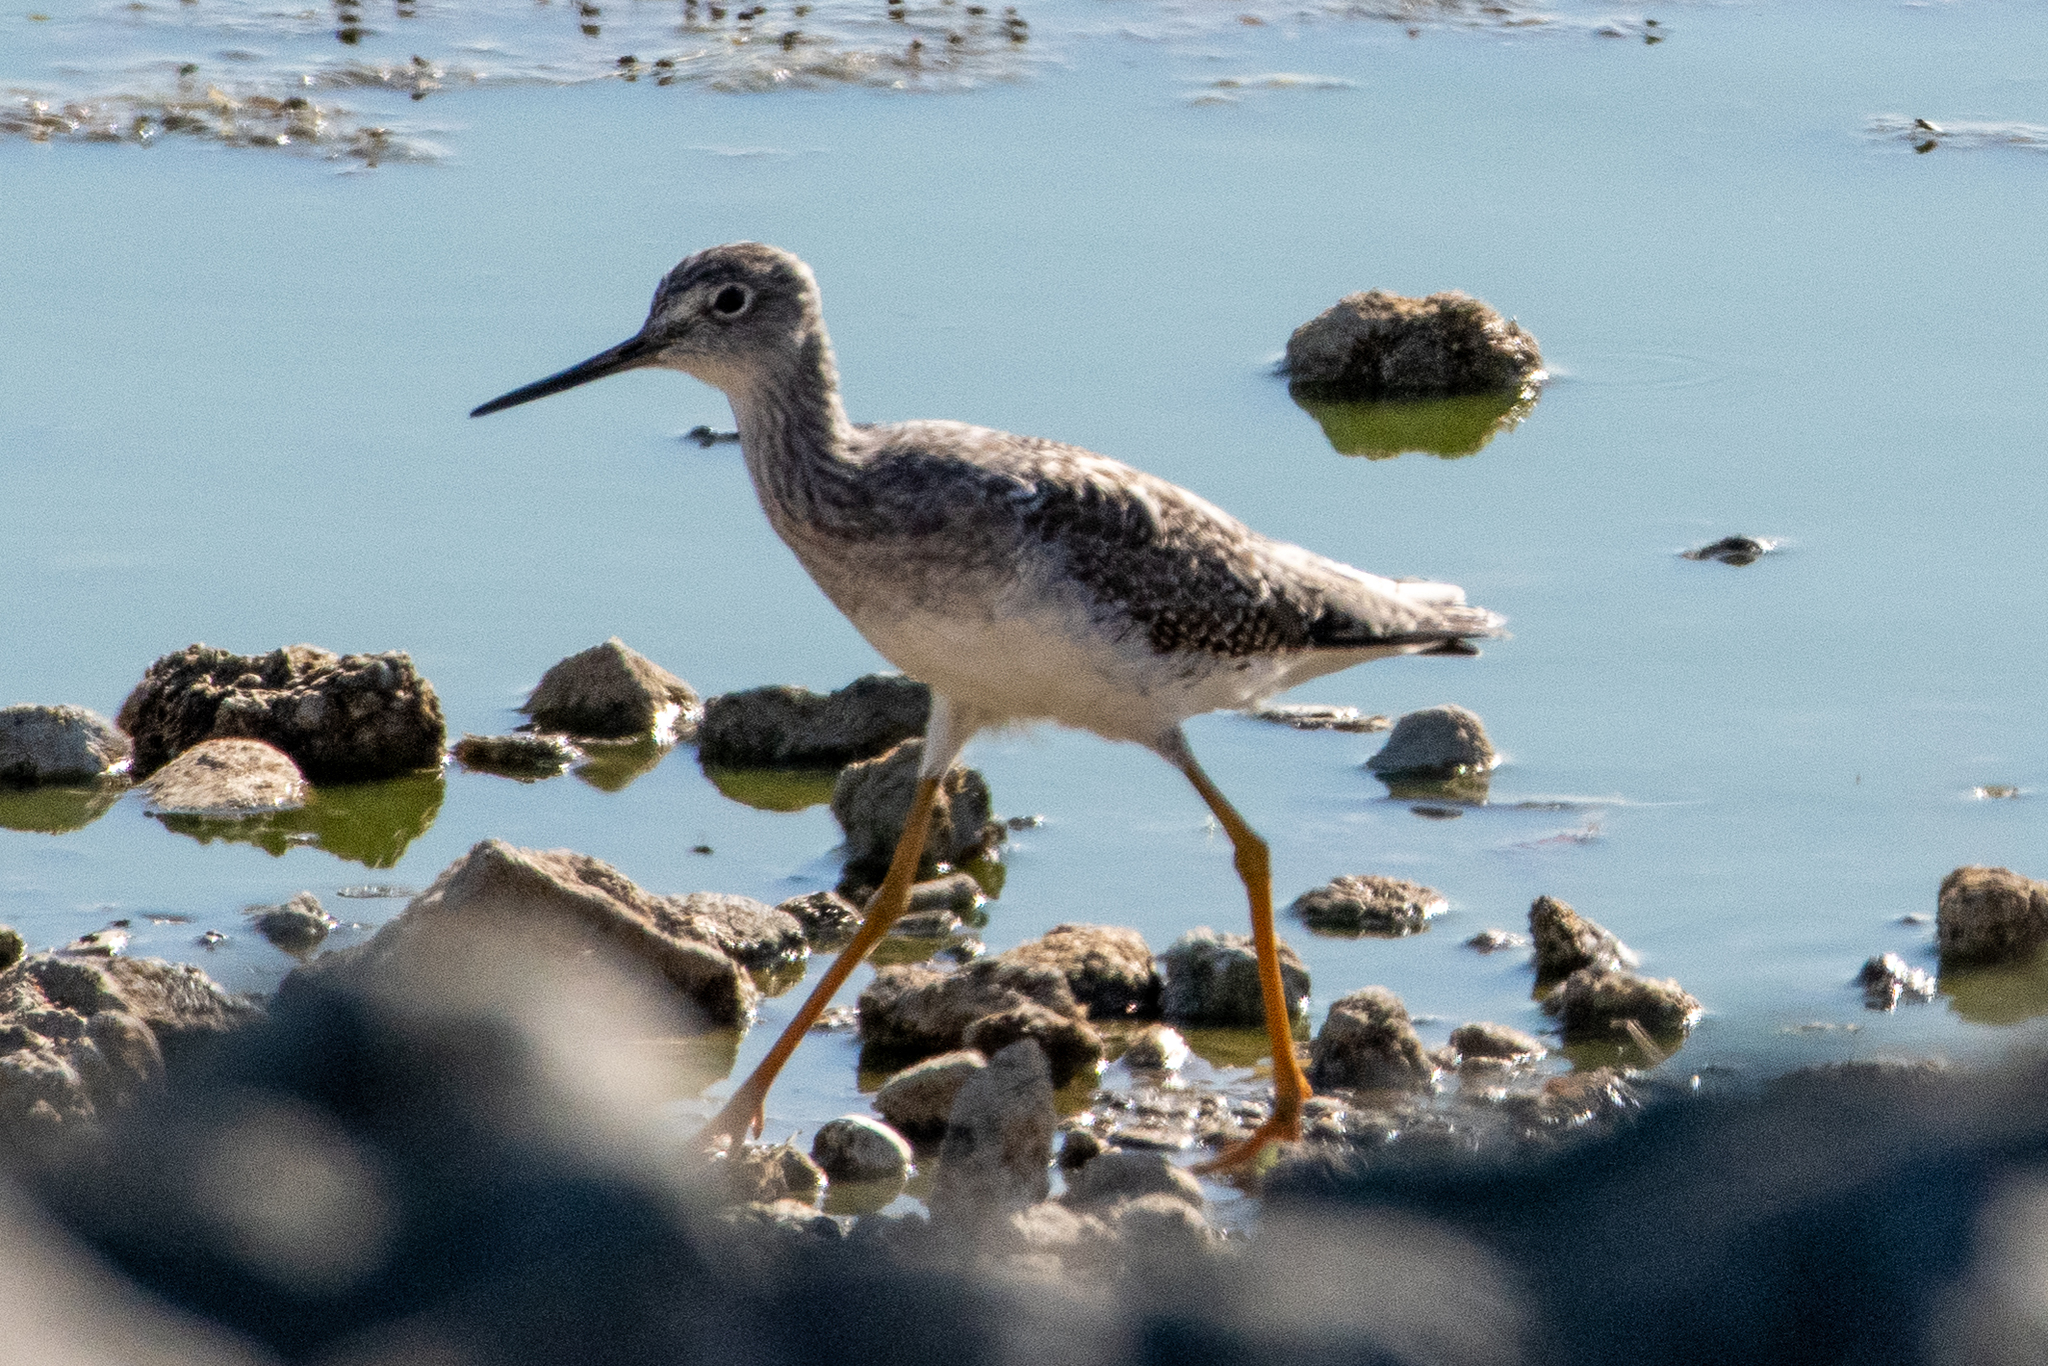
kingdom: Animalia
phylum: Chordata
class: Aves
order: Charadriiformes
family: Scolopacidae
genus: Tringa
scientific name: Tringa melanoleuca
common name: Greater yellowlegs
